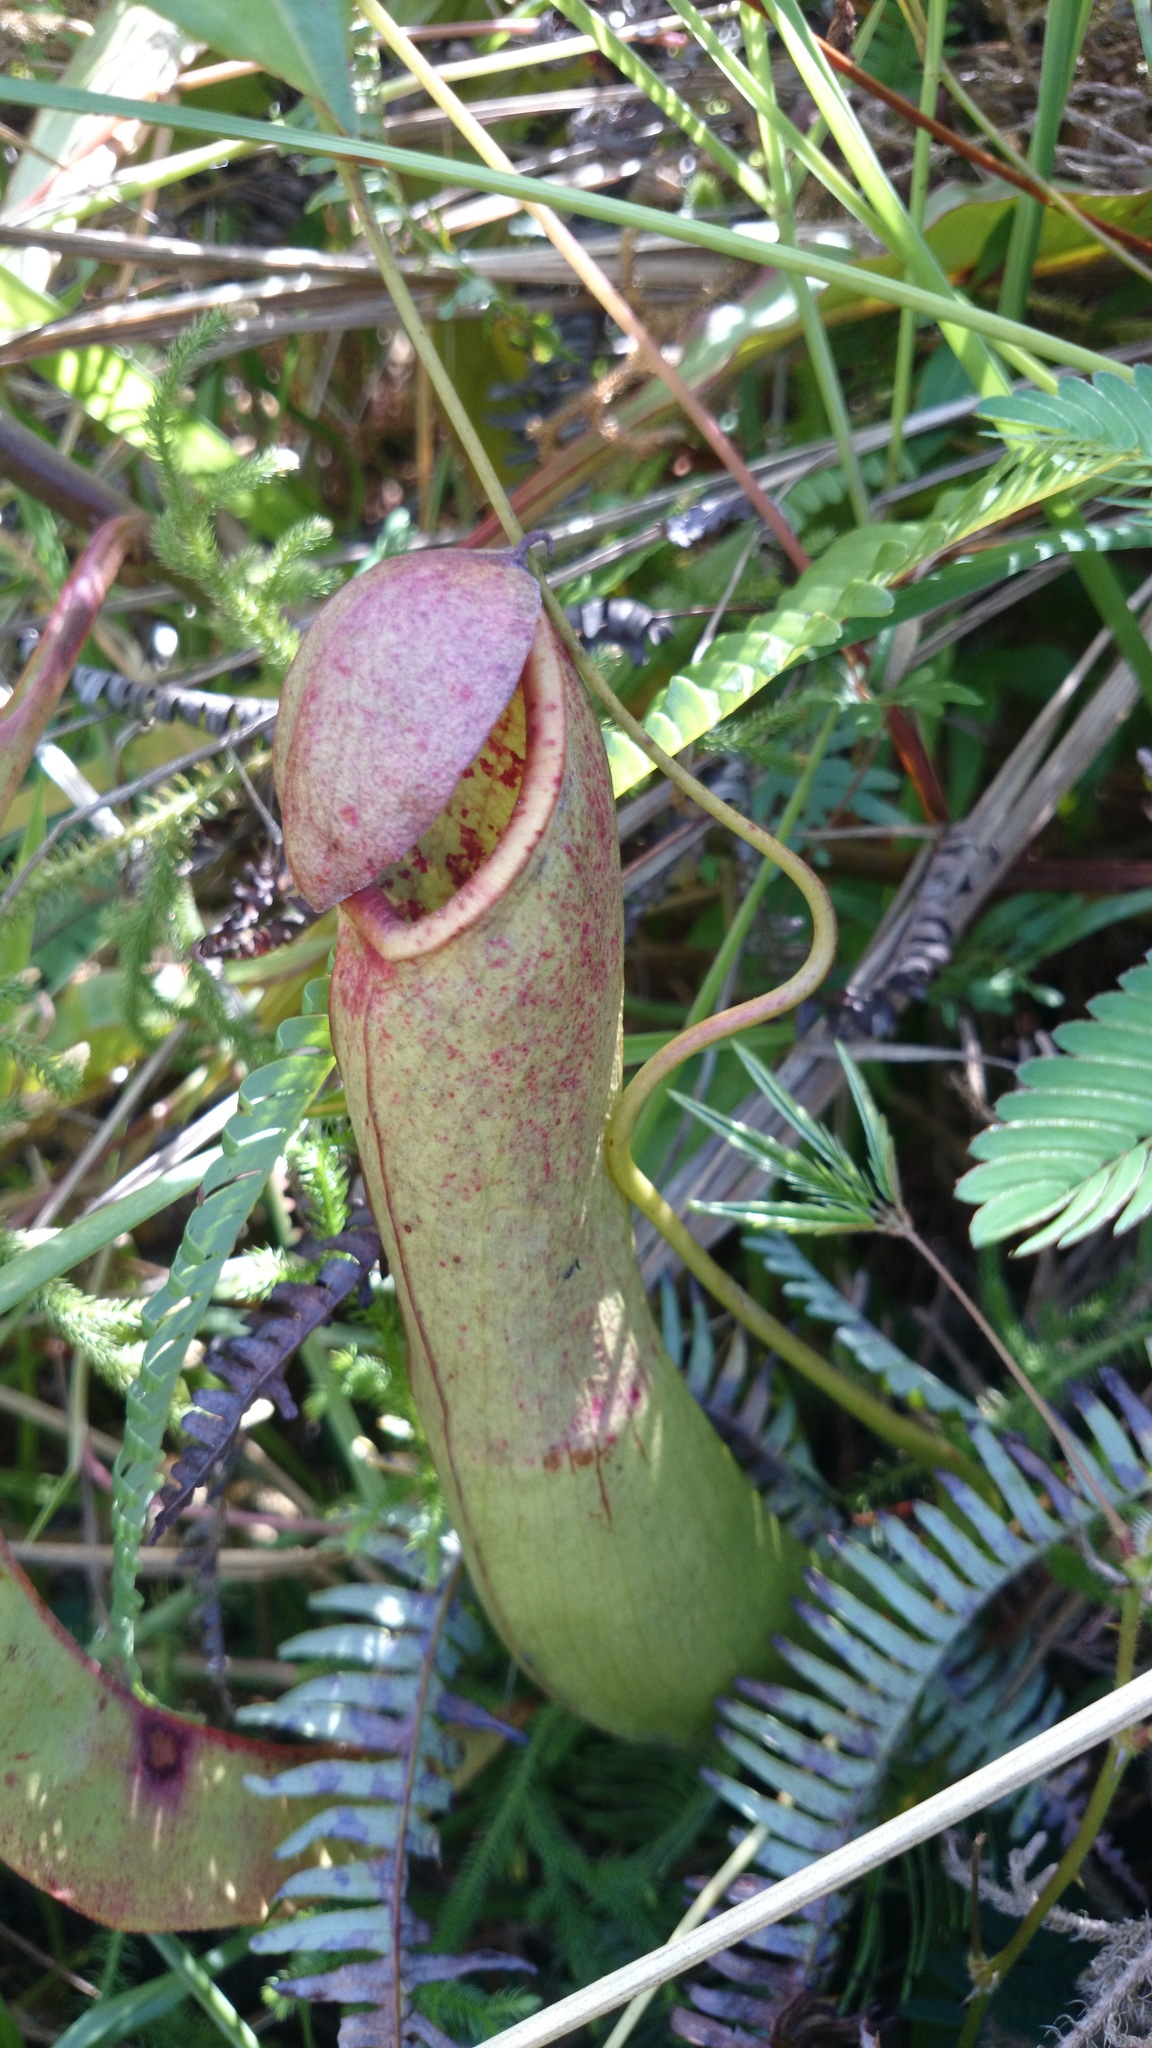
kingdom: Plantae
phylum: Tracheophyta
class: Magnoliopsida
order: Caryophyllales
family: Nepenthaceae
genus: Nepenthes
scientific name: Nepenthes mirabilis
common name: Tropical pitcherplant
